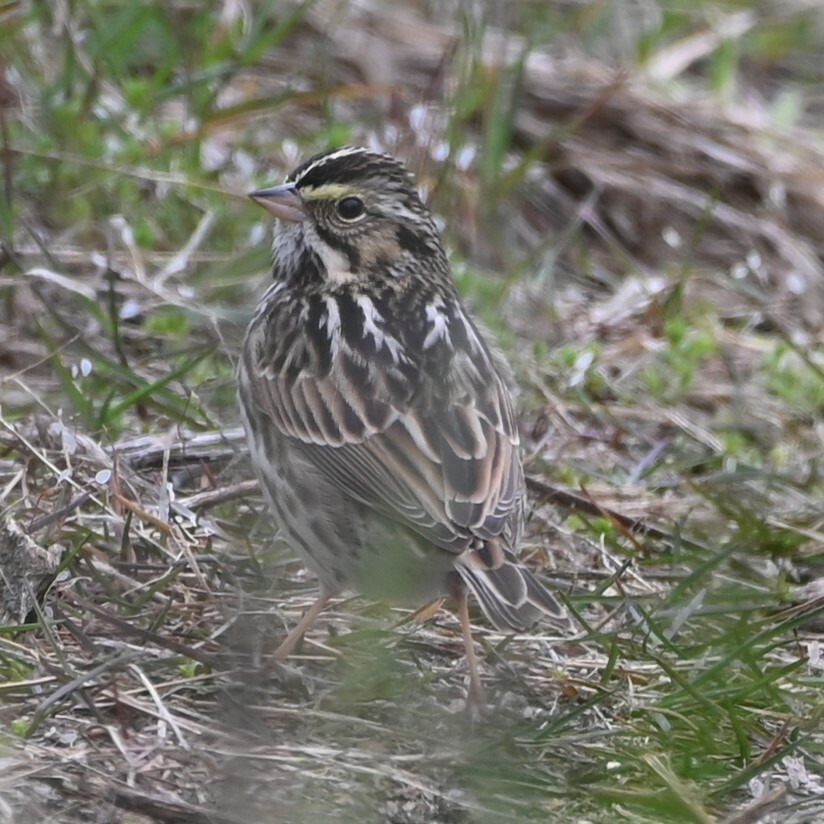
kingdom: Animalia
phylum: Chordata
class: Aves
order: Passeriformes
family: Passerellidae
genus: Passerculus
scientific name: Passerculus sandwichensis
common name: Savannah sparrow
